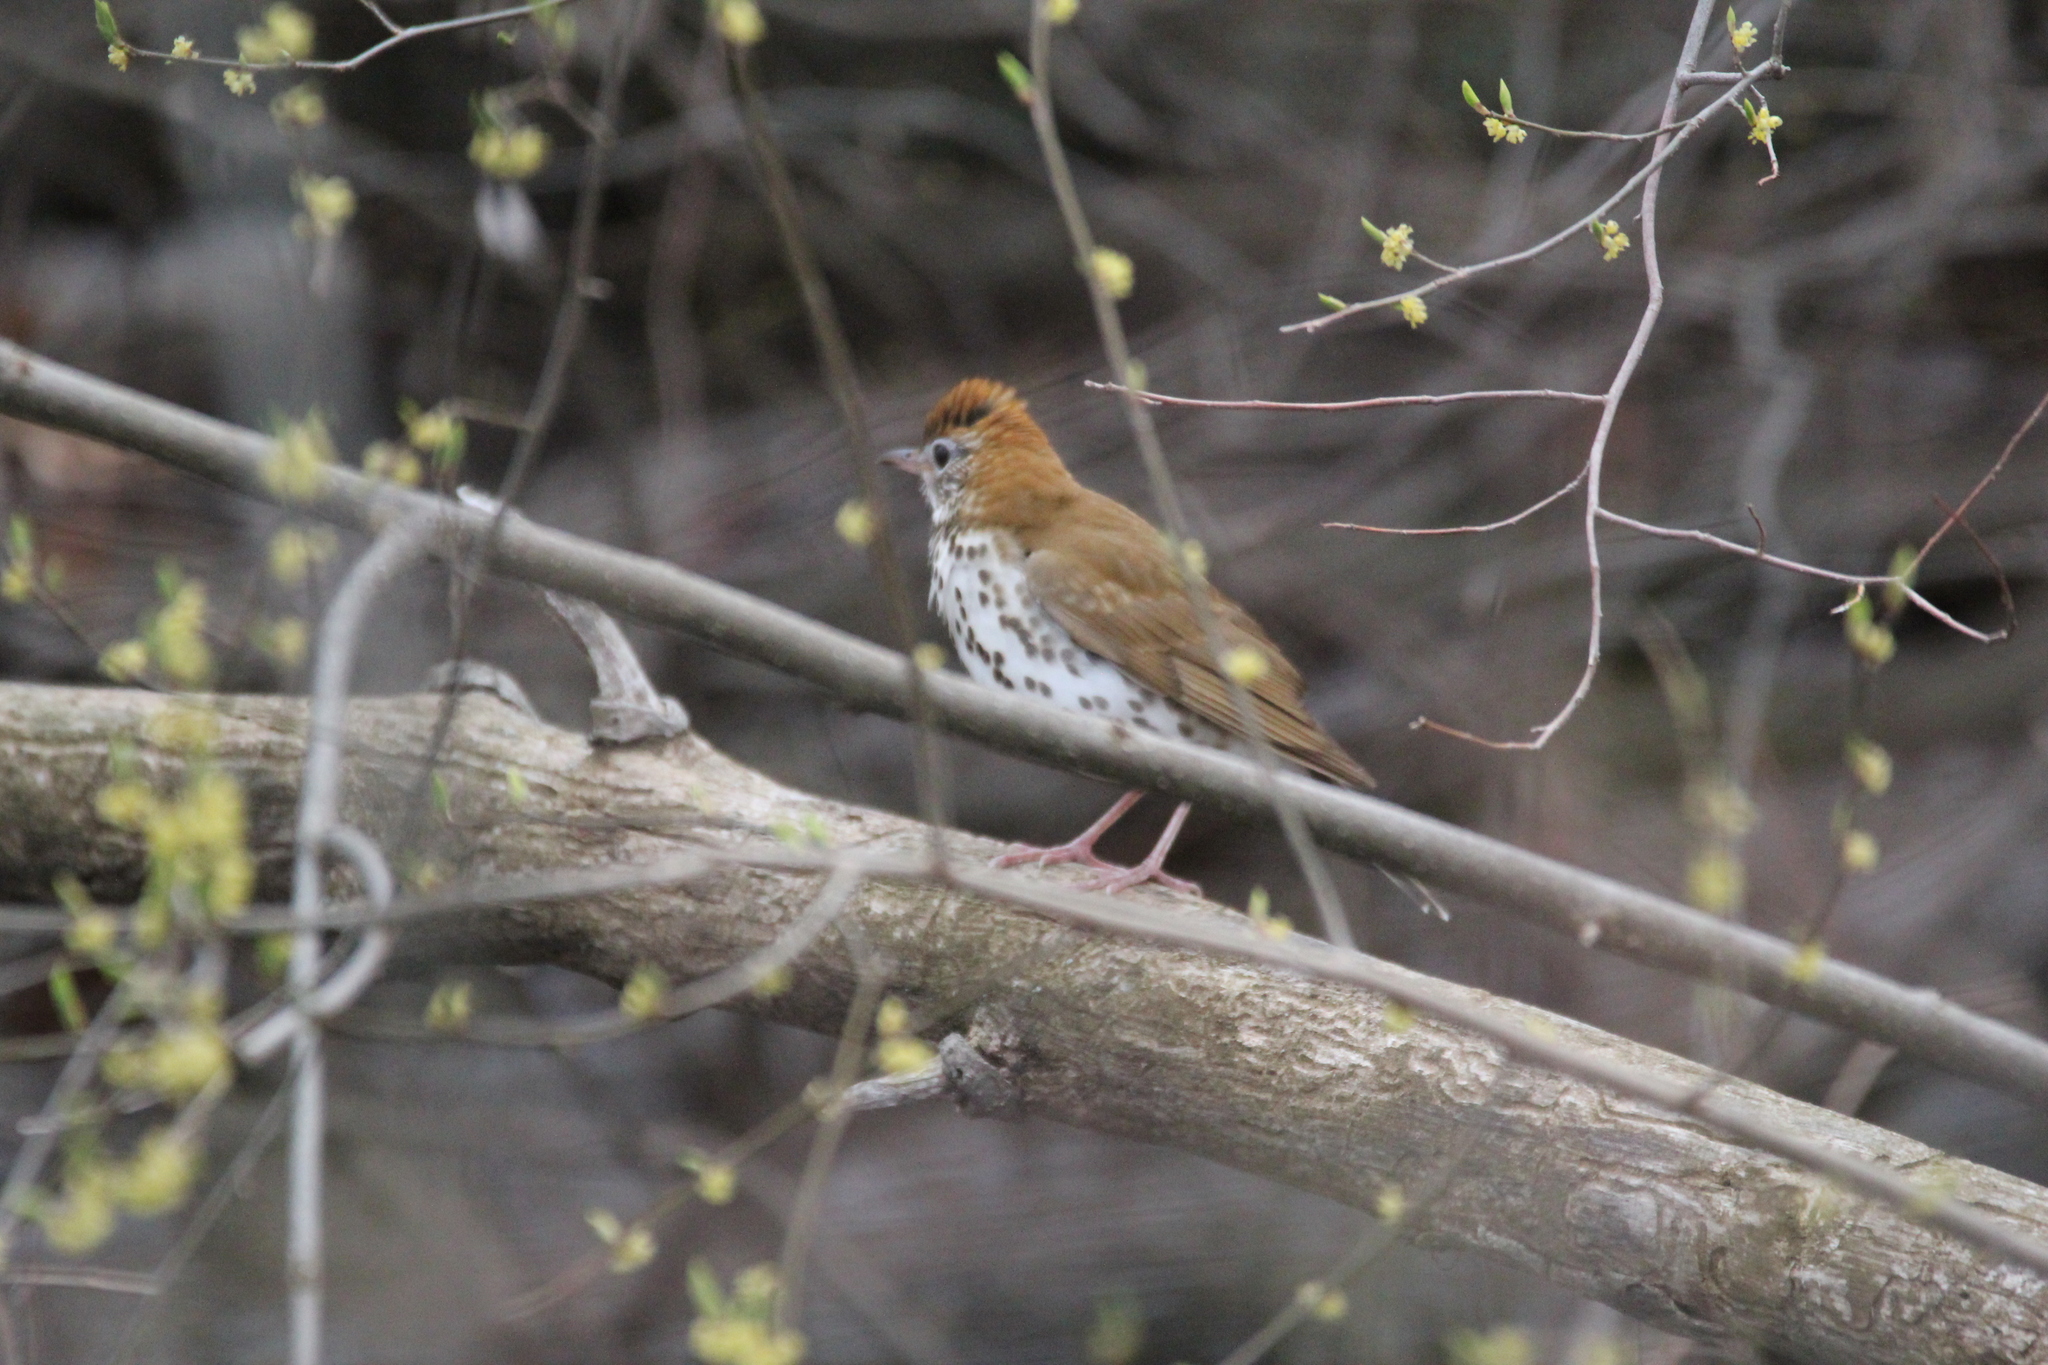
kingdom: Animalia
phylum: Chordata
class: Aves
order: Passeriformes
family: Turdidae
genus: Hylocichla
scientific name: Hylocichla mustelina
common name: Wood thrush
